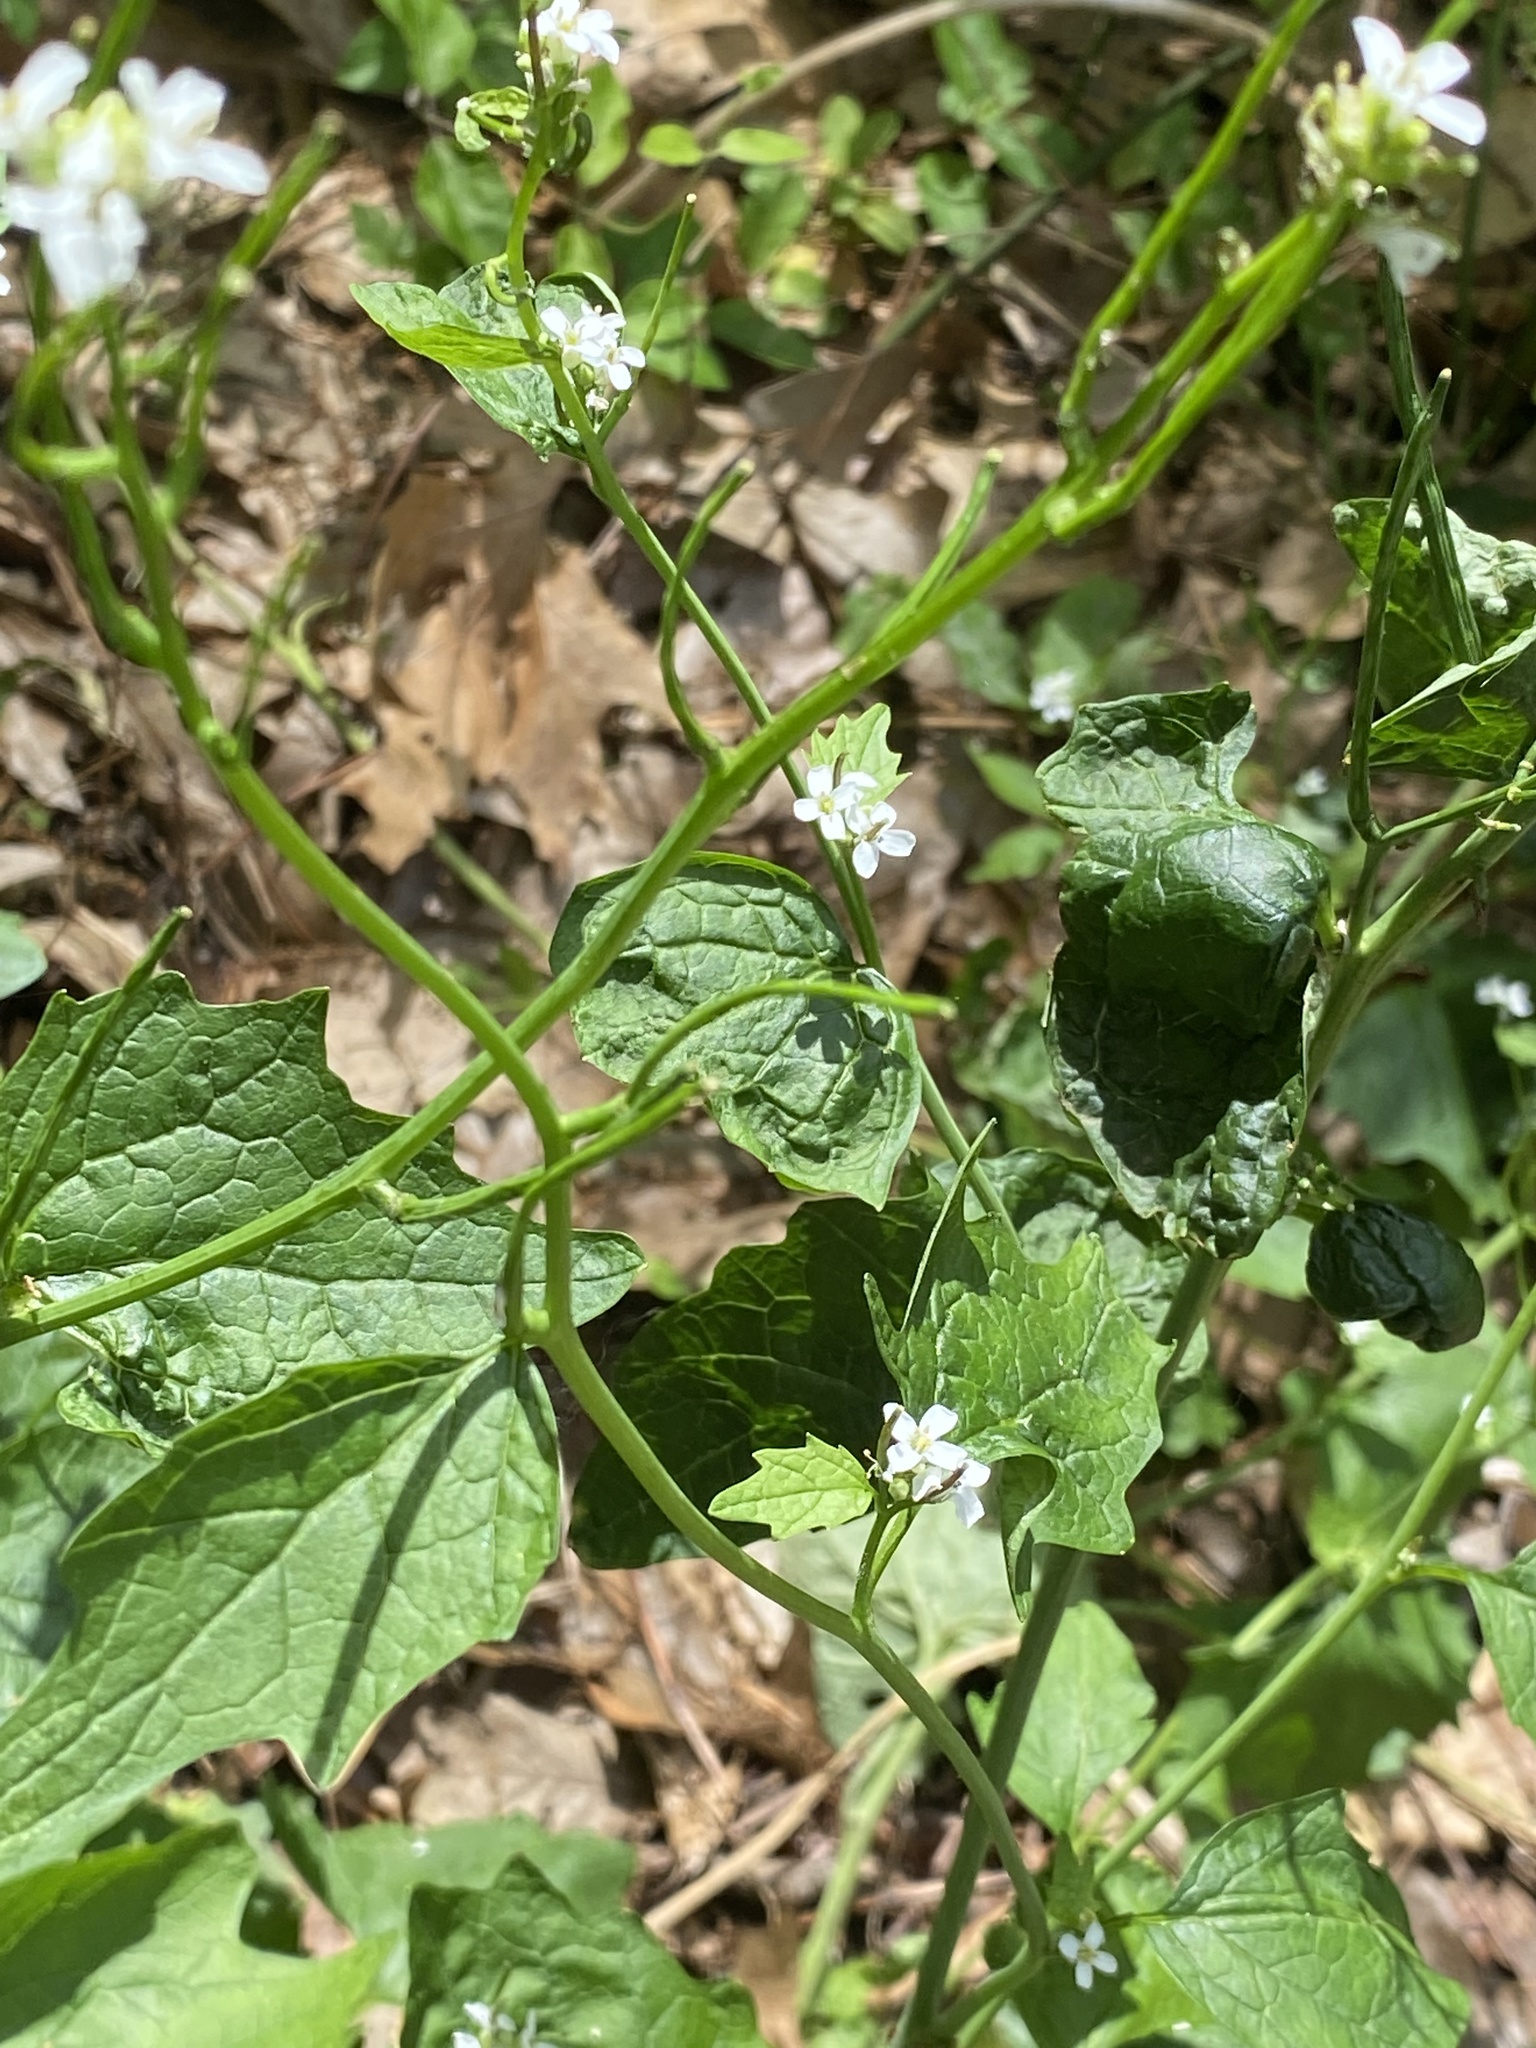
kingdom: Plantae
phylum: Tracheophyta
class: Magnoliopsida
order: Brassicales
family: Brassicaceae
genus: Alliaria
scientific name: Alliaria petiolata
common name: Garlic mustard
